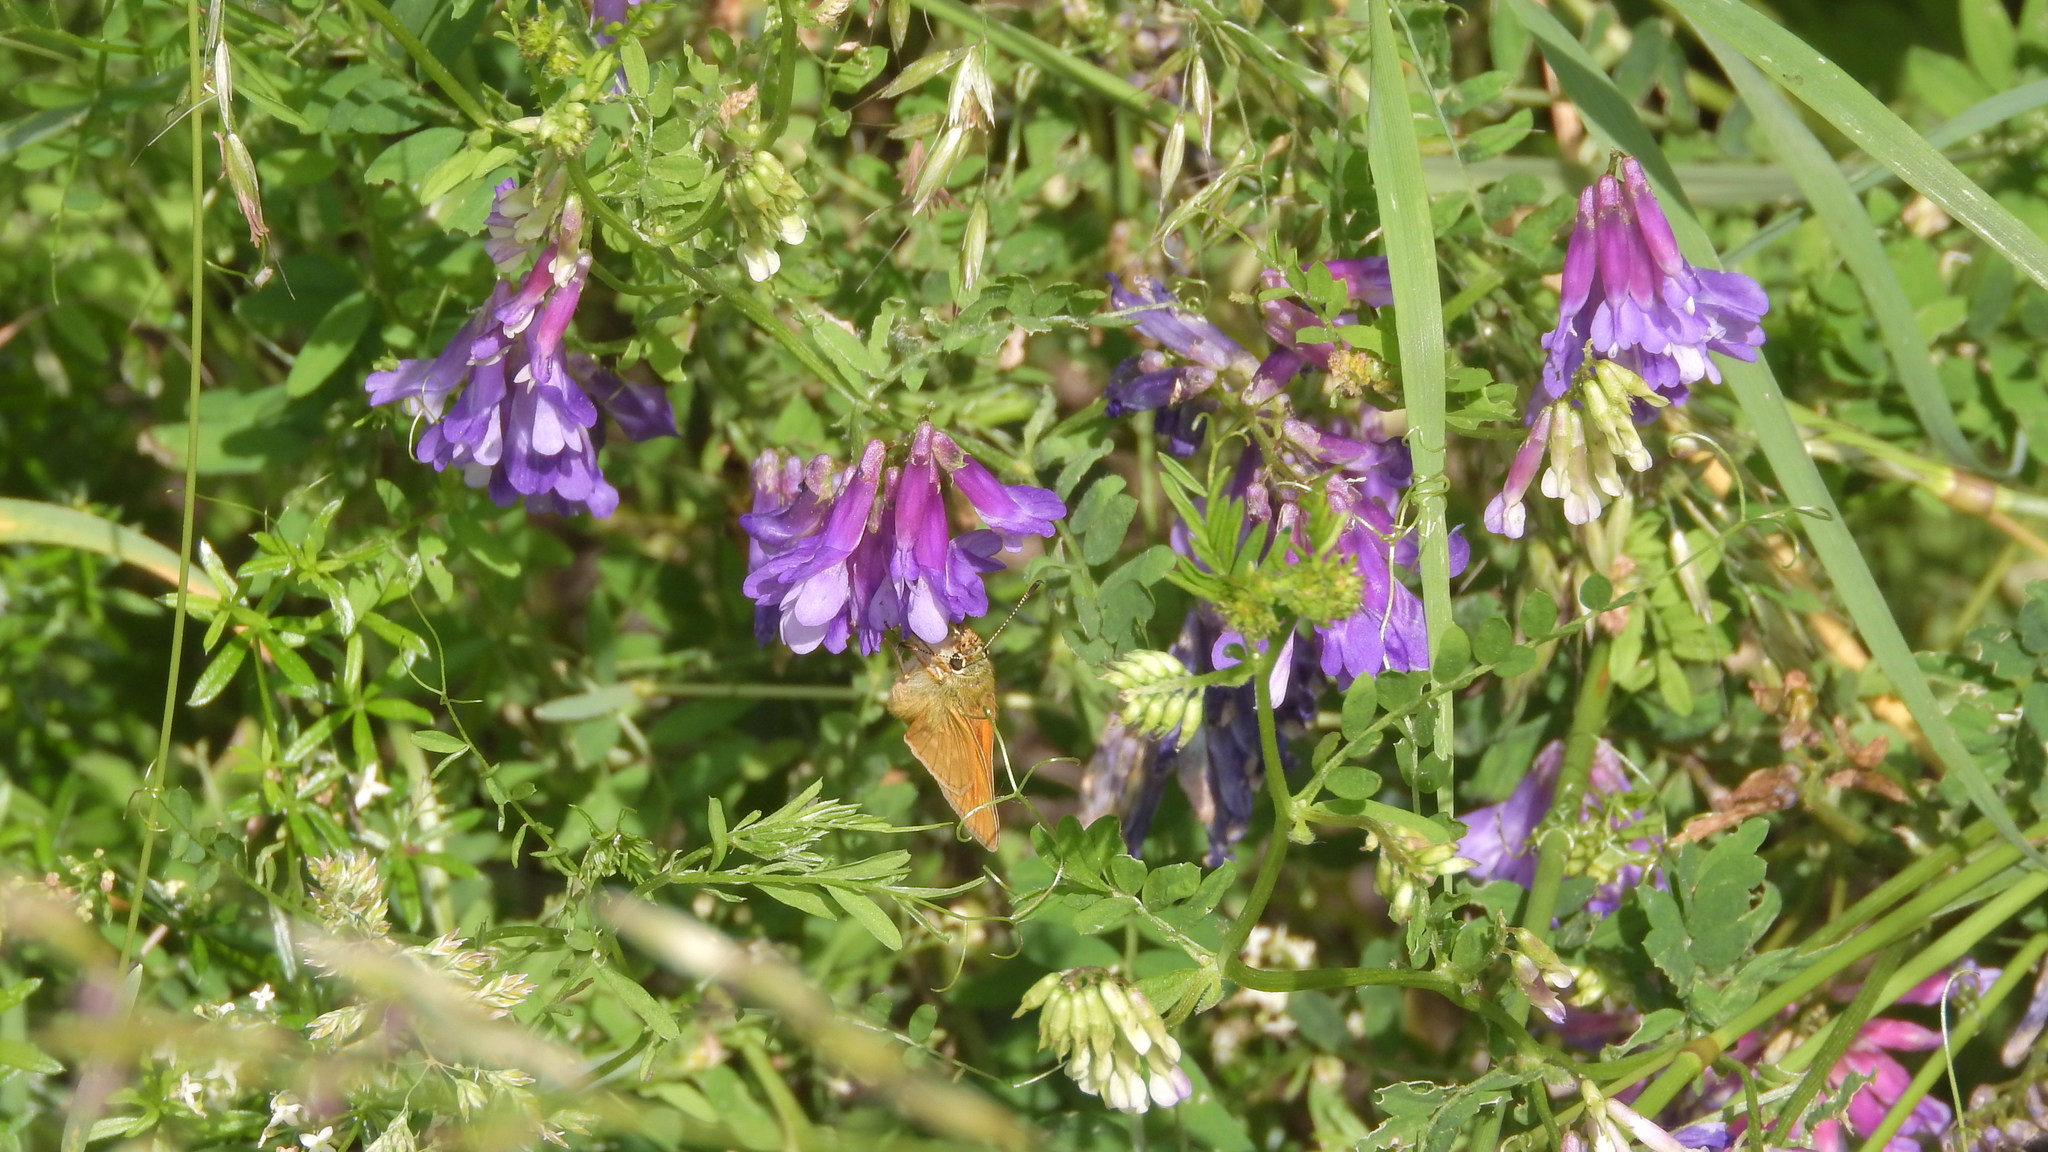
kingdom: Animalia
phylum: Arthropoda
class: Insecta
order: Lepidoptera
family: Hesperiidae
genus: Ochlodes
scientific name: Ochlodes venata
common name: Large skipper
